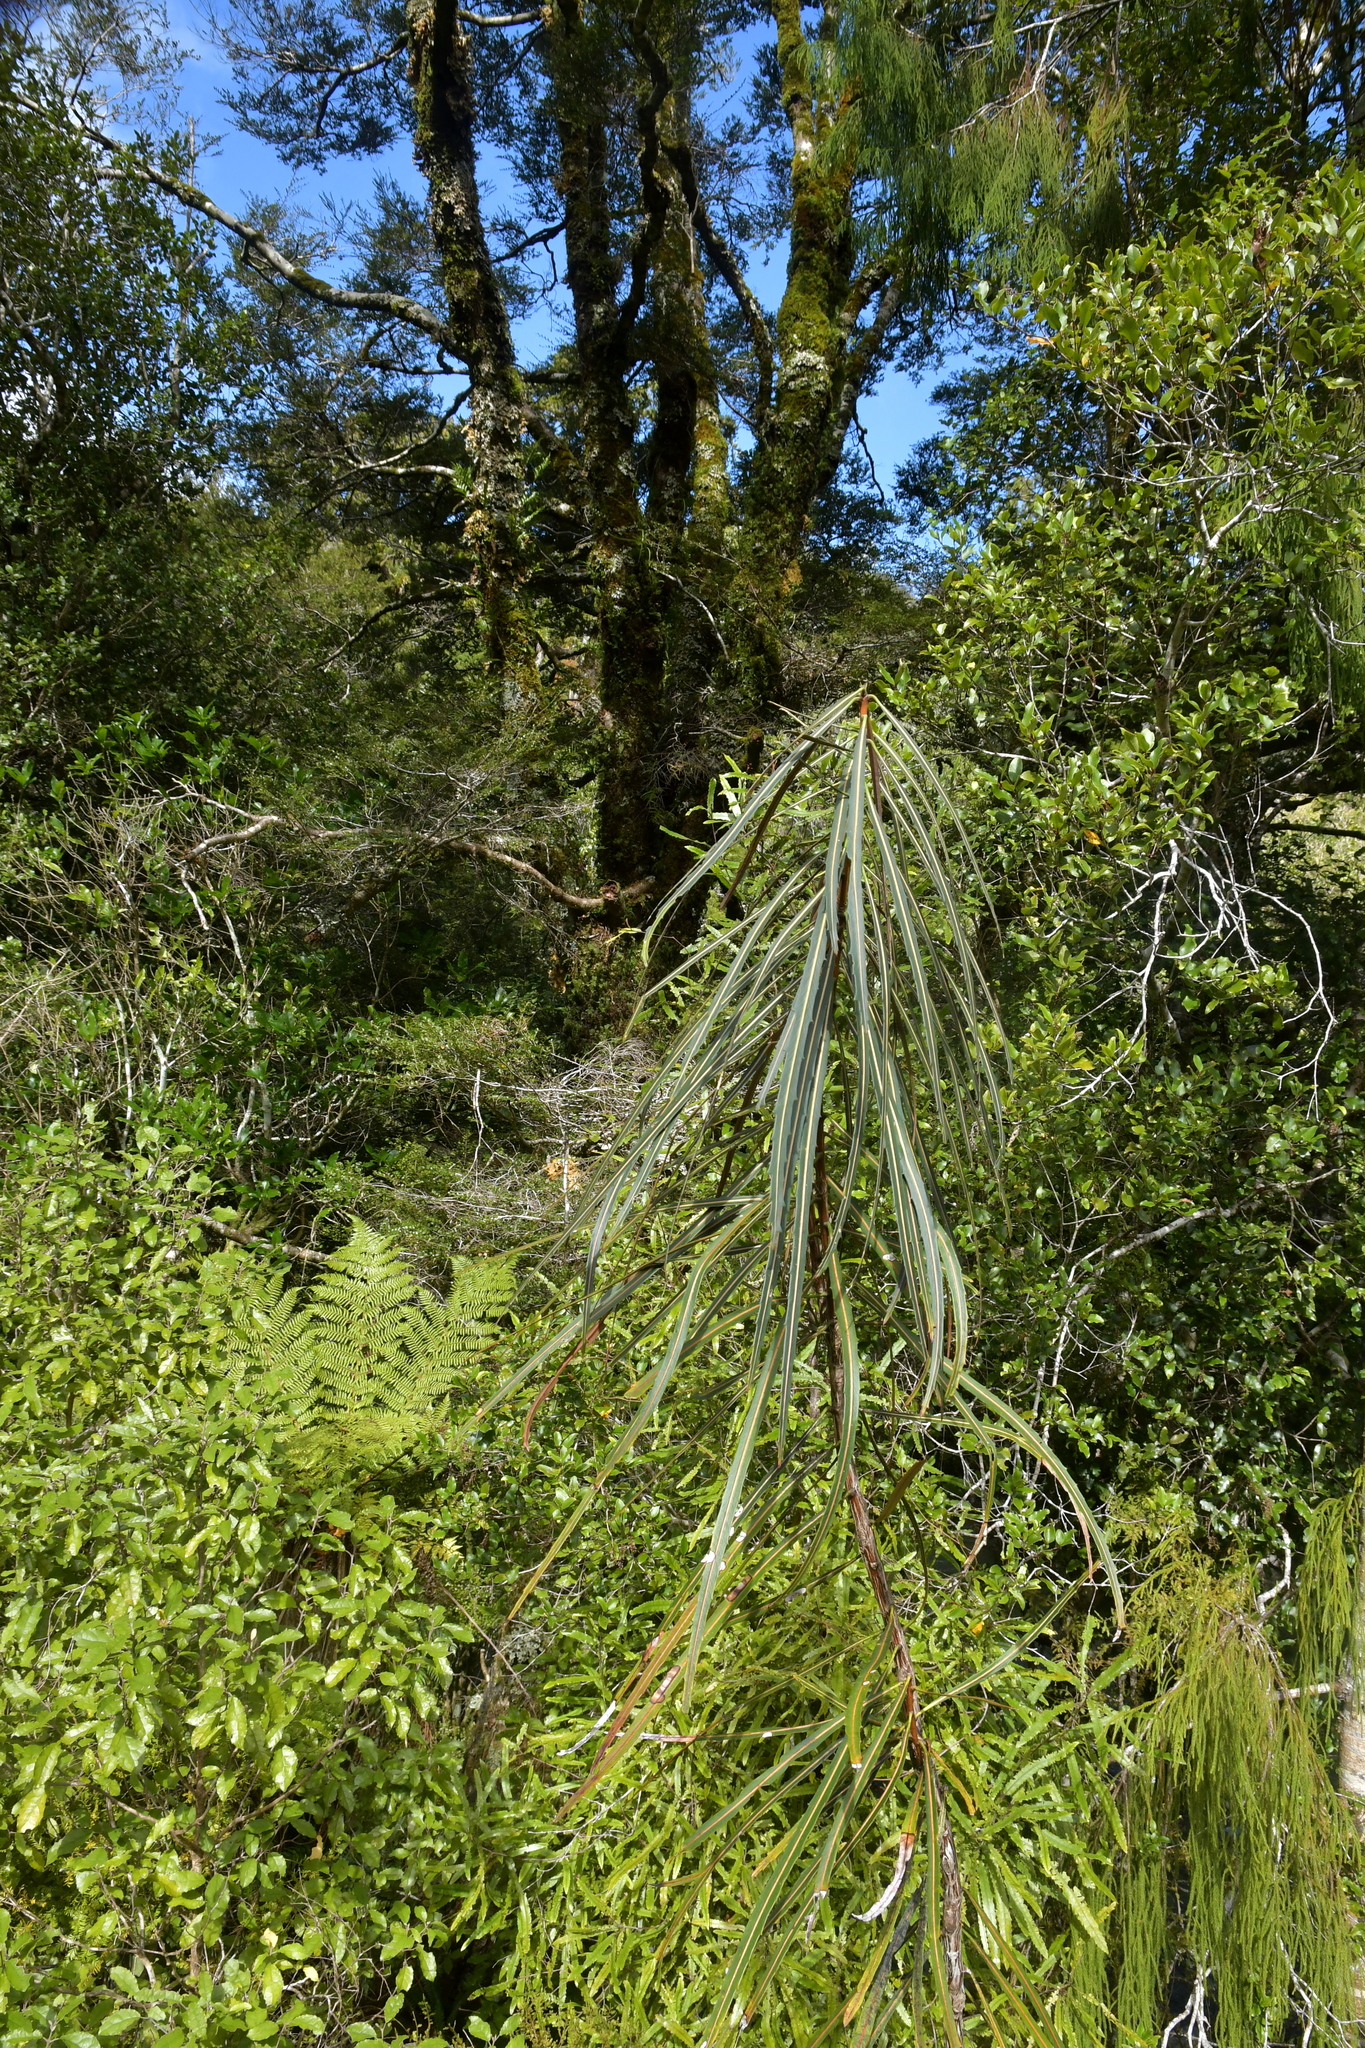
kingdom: Plantae
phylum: Tracheophyta
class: Magnoliopsida
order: Apiales
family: Araliaceae
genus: Pseudopanax
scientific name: Pseudopanax crassifolius
